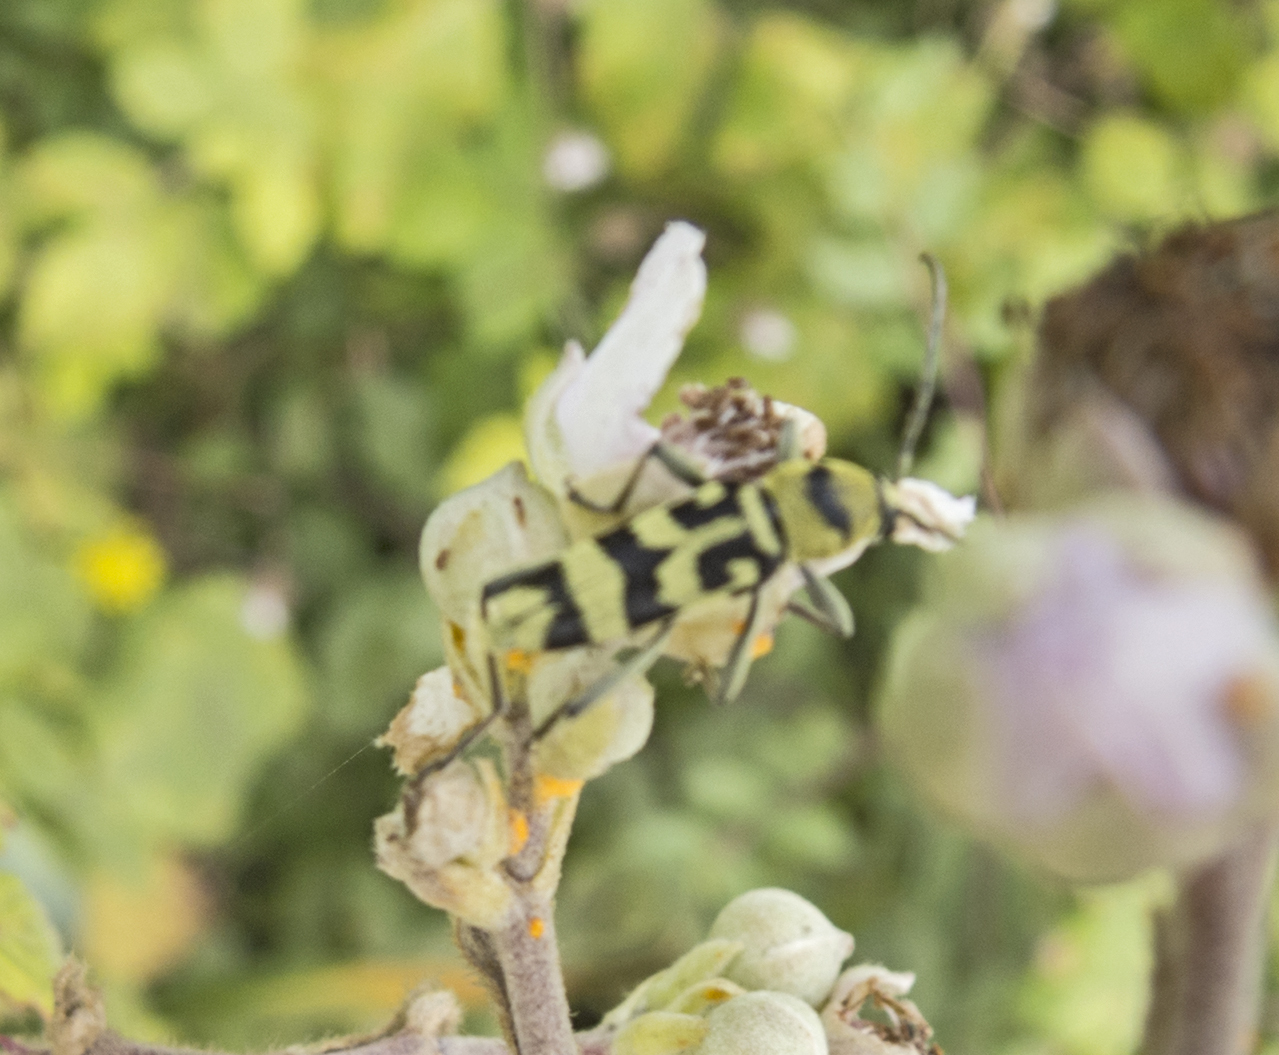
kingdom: Animalia
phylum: Arthropoda
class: Insecta
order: Coleoptera
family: Cerambycidae
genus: Chlorophorus
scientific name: Chlorophorus varius
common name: Grape wood borer
